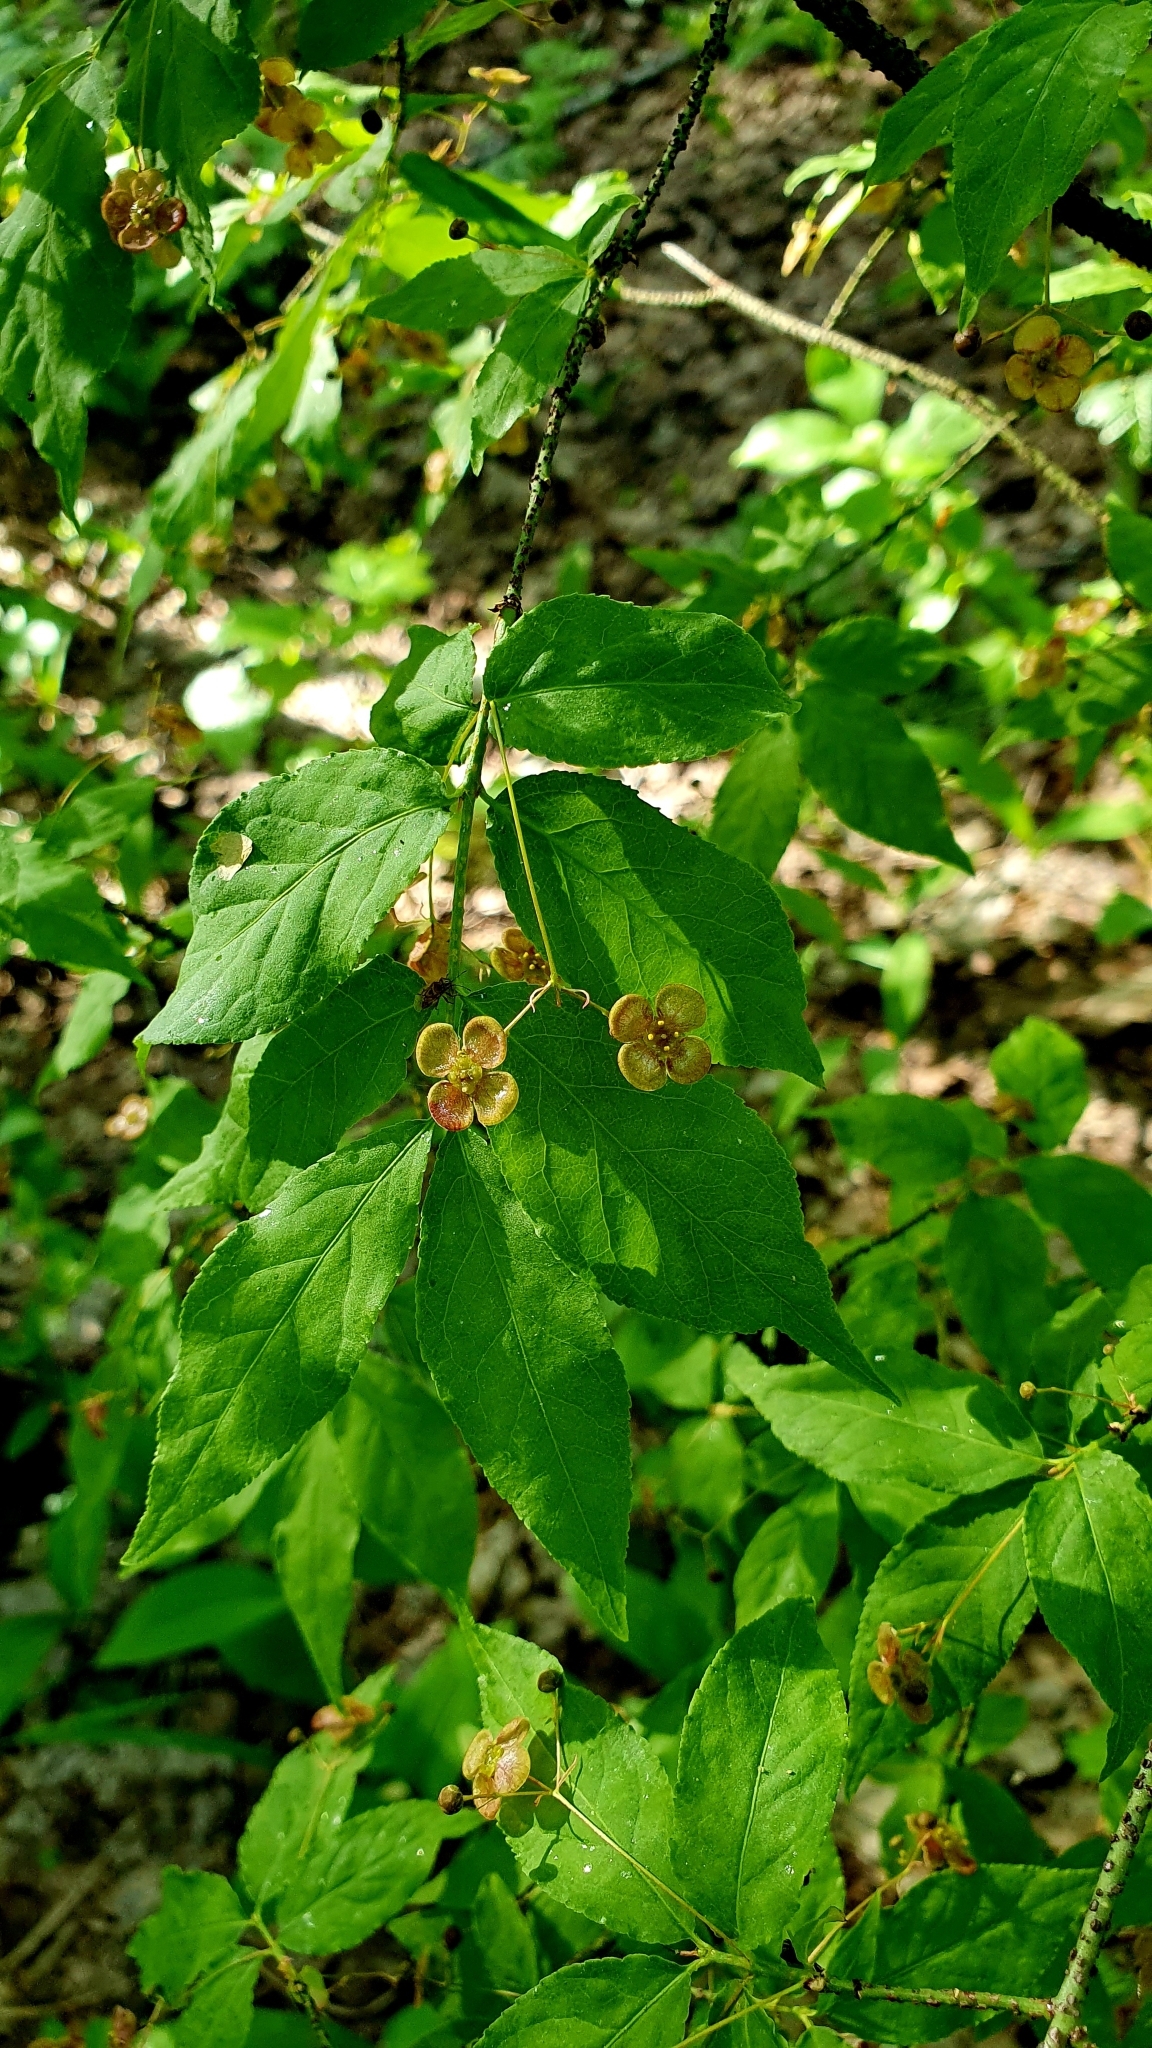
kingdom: Plantae
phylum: Tracheophyta
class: Magnoliopsida
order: Celastrales
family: Celastraceae
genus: Euonymus
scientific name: Euonymus verrucosus
